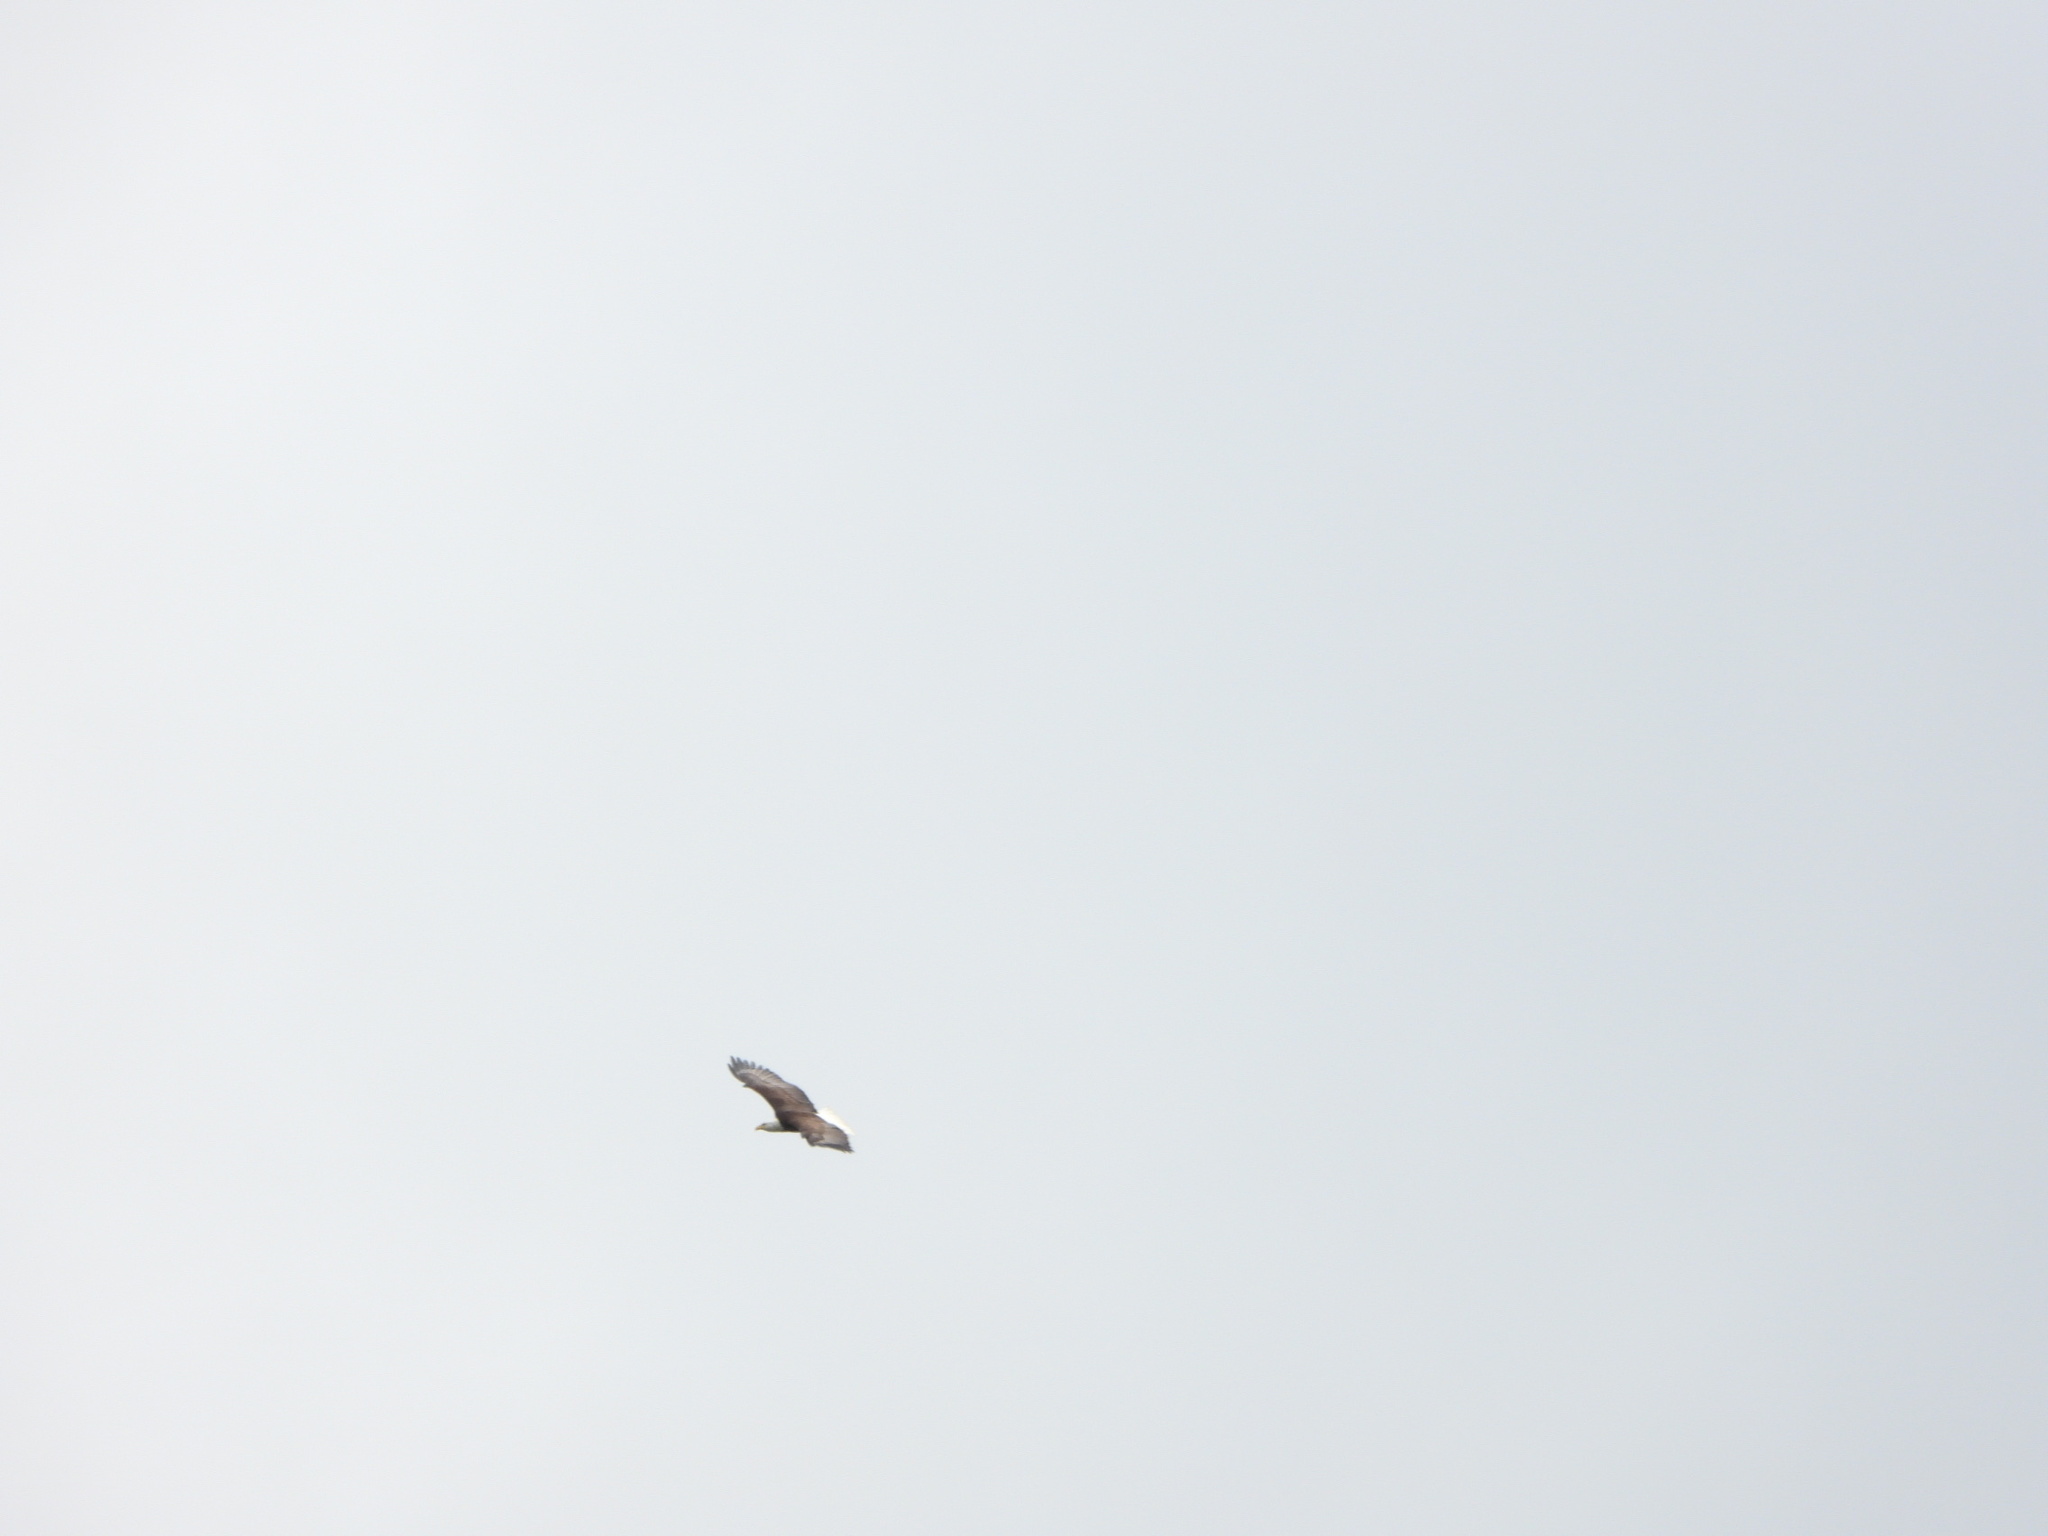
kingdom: Animalia
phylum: Chordata
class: Aves
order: Accipitriformes
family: Accipitridae
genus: Haliaeetus
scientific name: Haliaeetus leucocephalus
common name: Bald eagle
